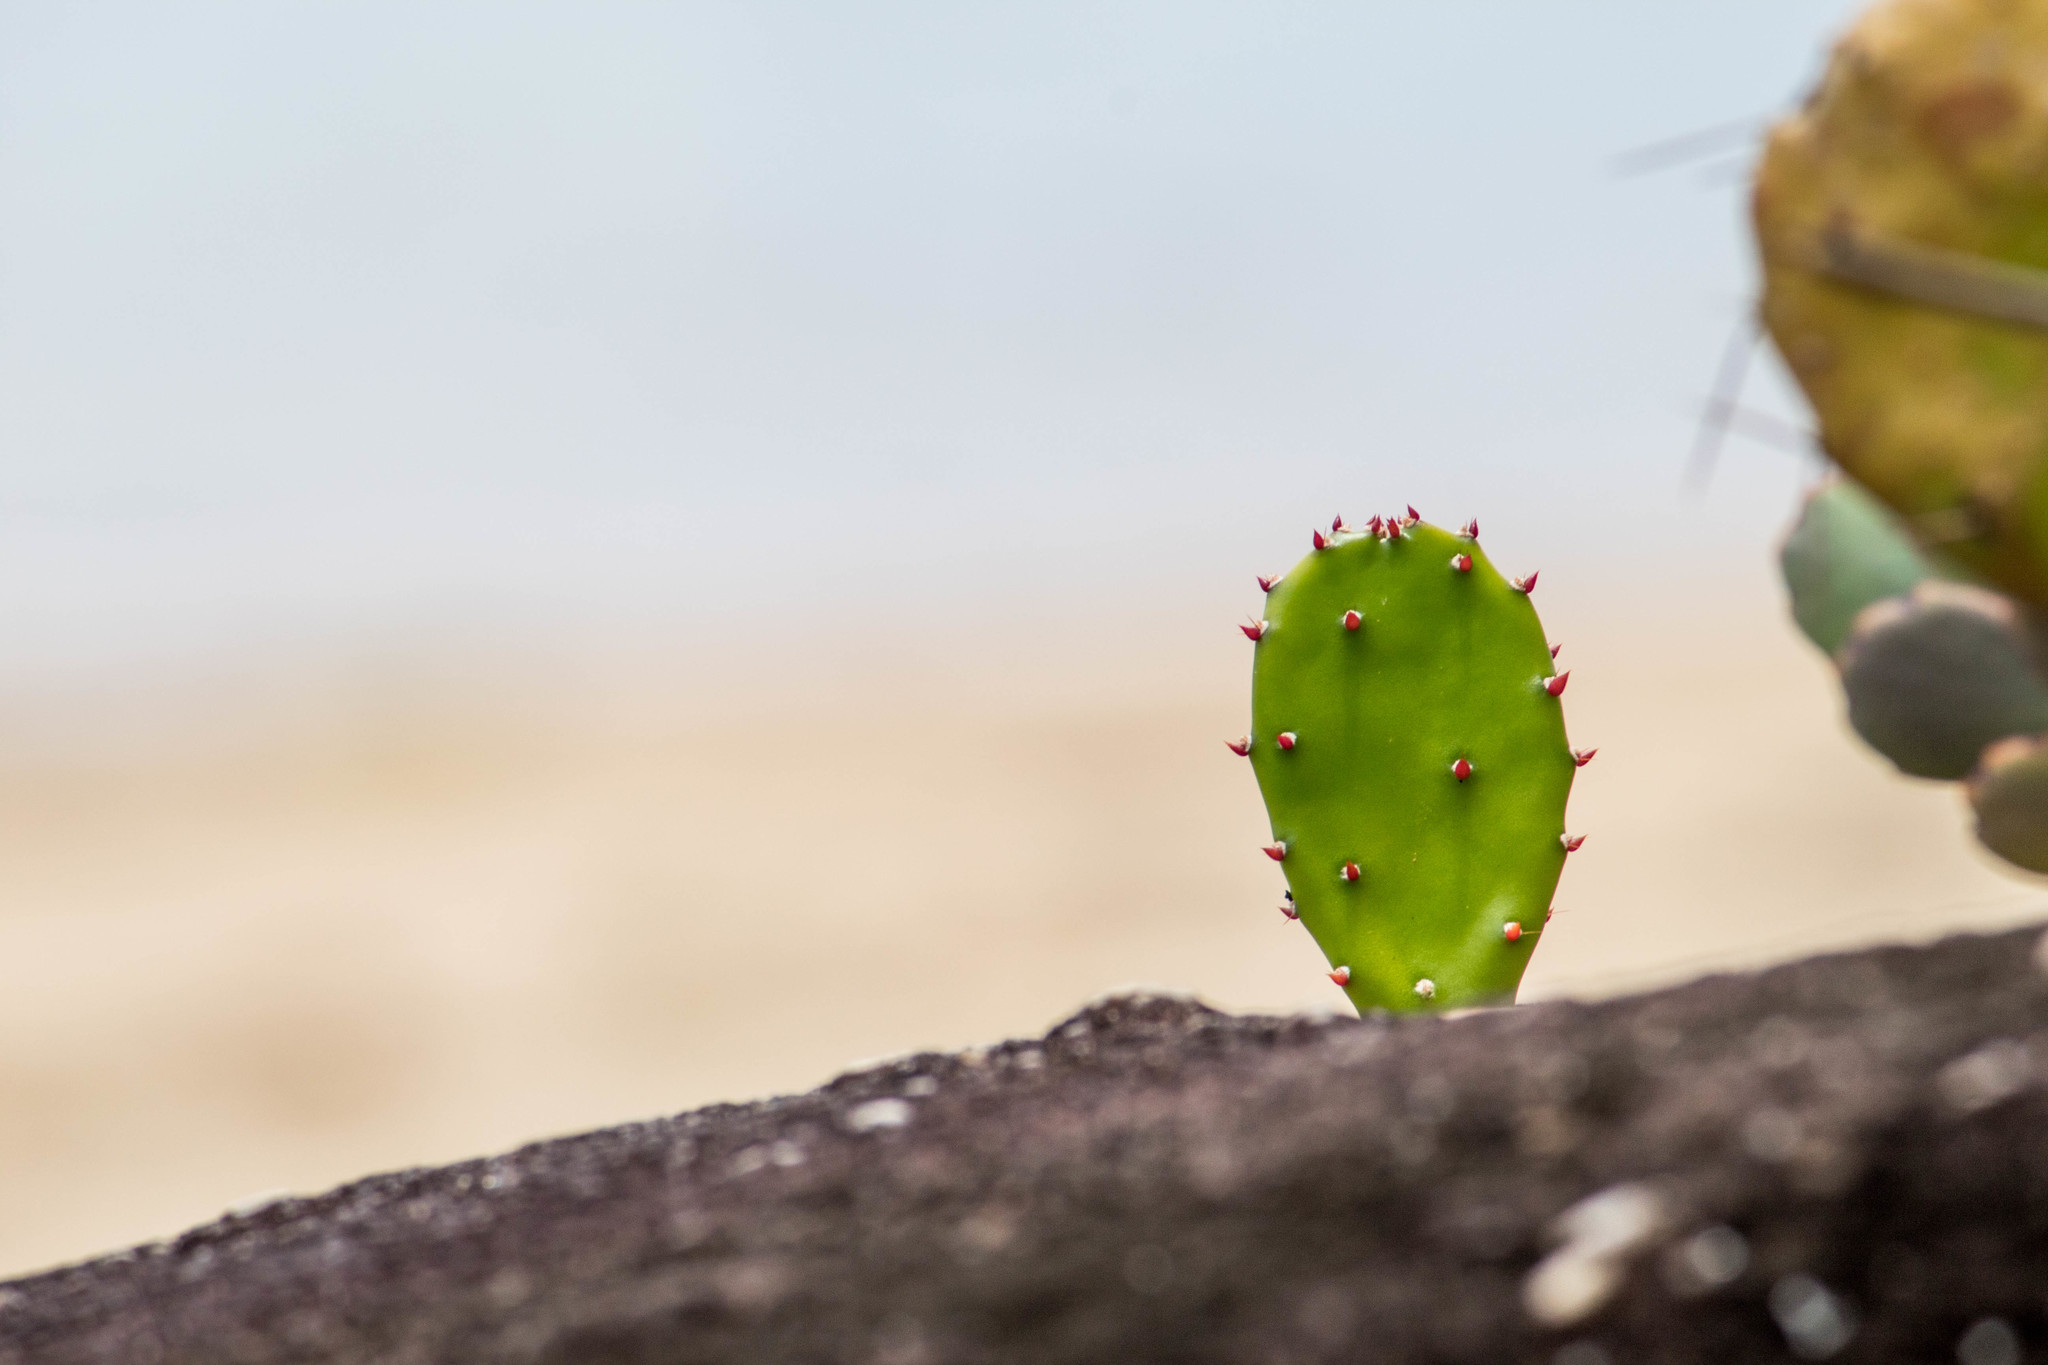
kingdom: Plantae
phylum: Tracheophyta
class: Magnoliopsida
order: Caryophyllales
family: Cactaceae
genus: Opuntia
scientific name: Opuntia monacantha
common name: Common pricklypear
